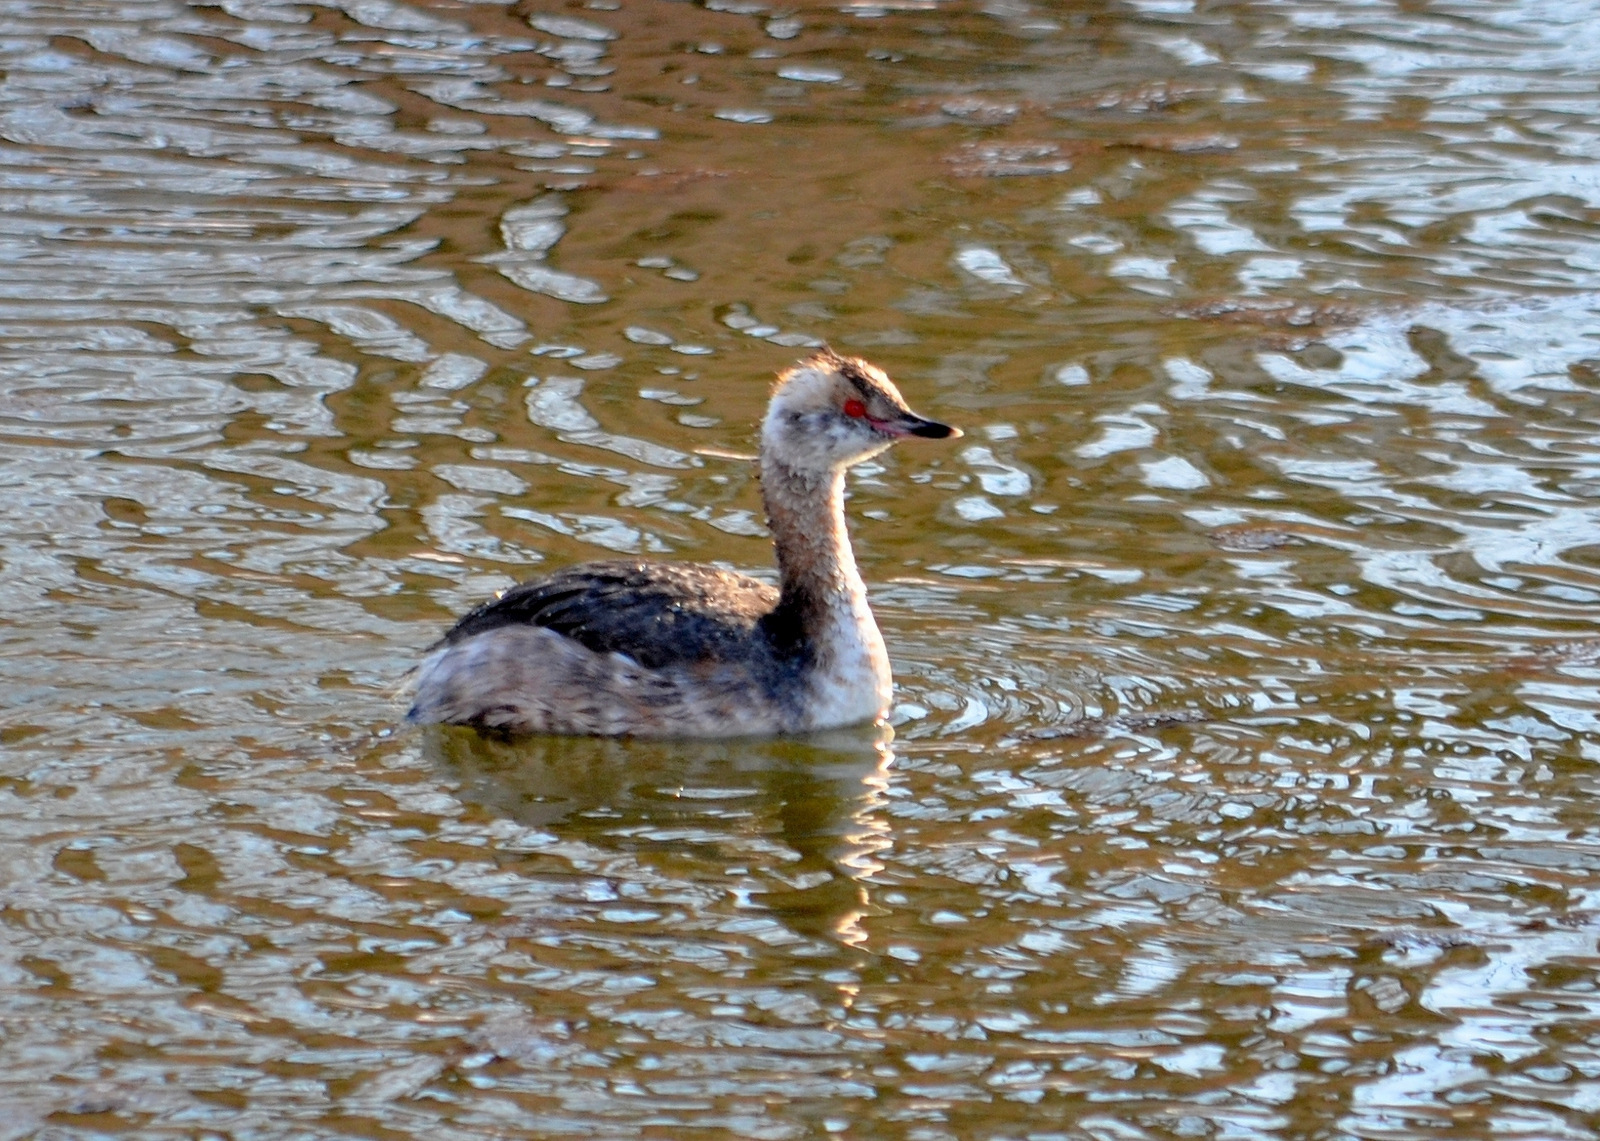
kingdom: Animalia
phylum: Chordata
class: Aves
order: Podicipediformes
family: Podicipedidae
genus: Podiceps
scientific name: Podiceps auritus
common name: Horned grebe
